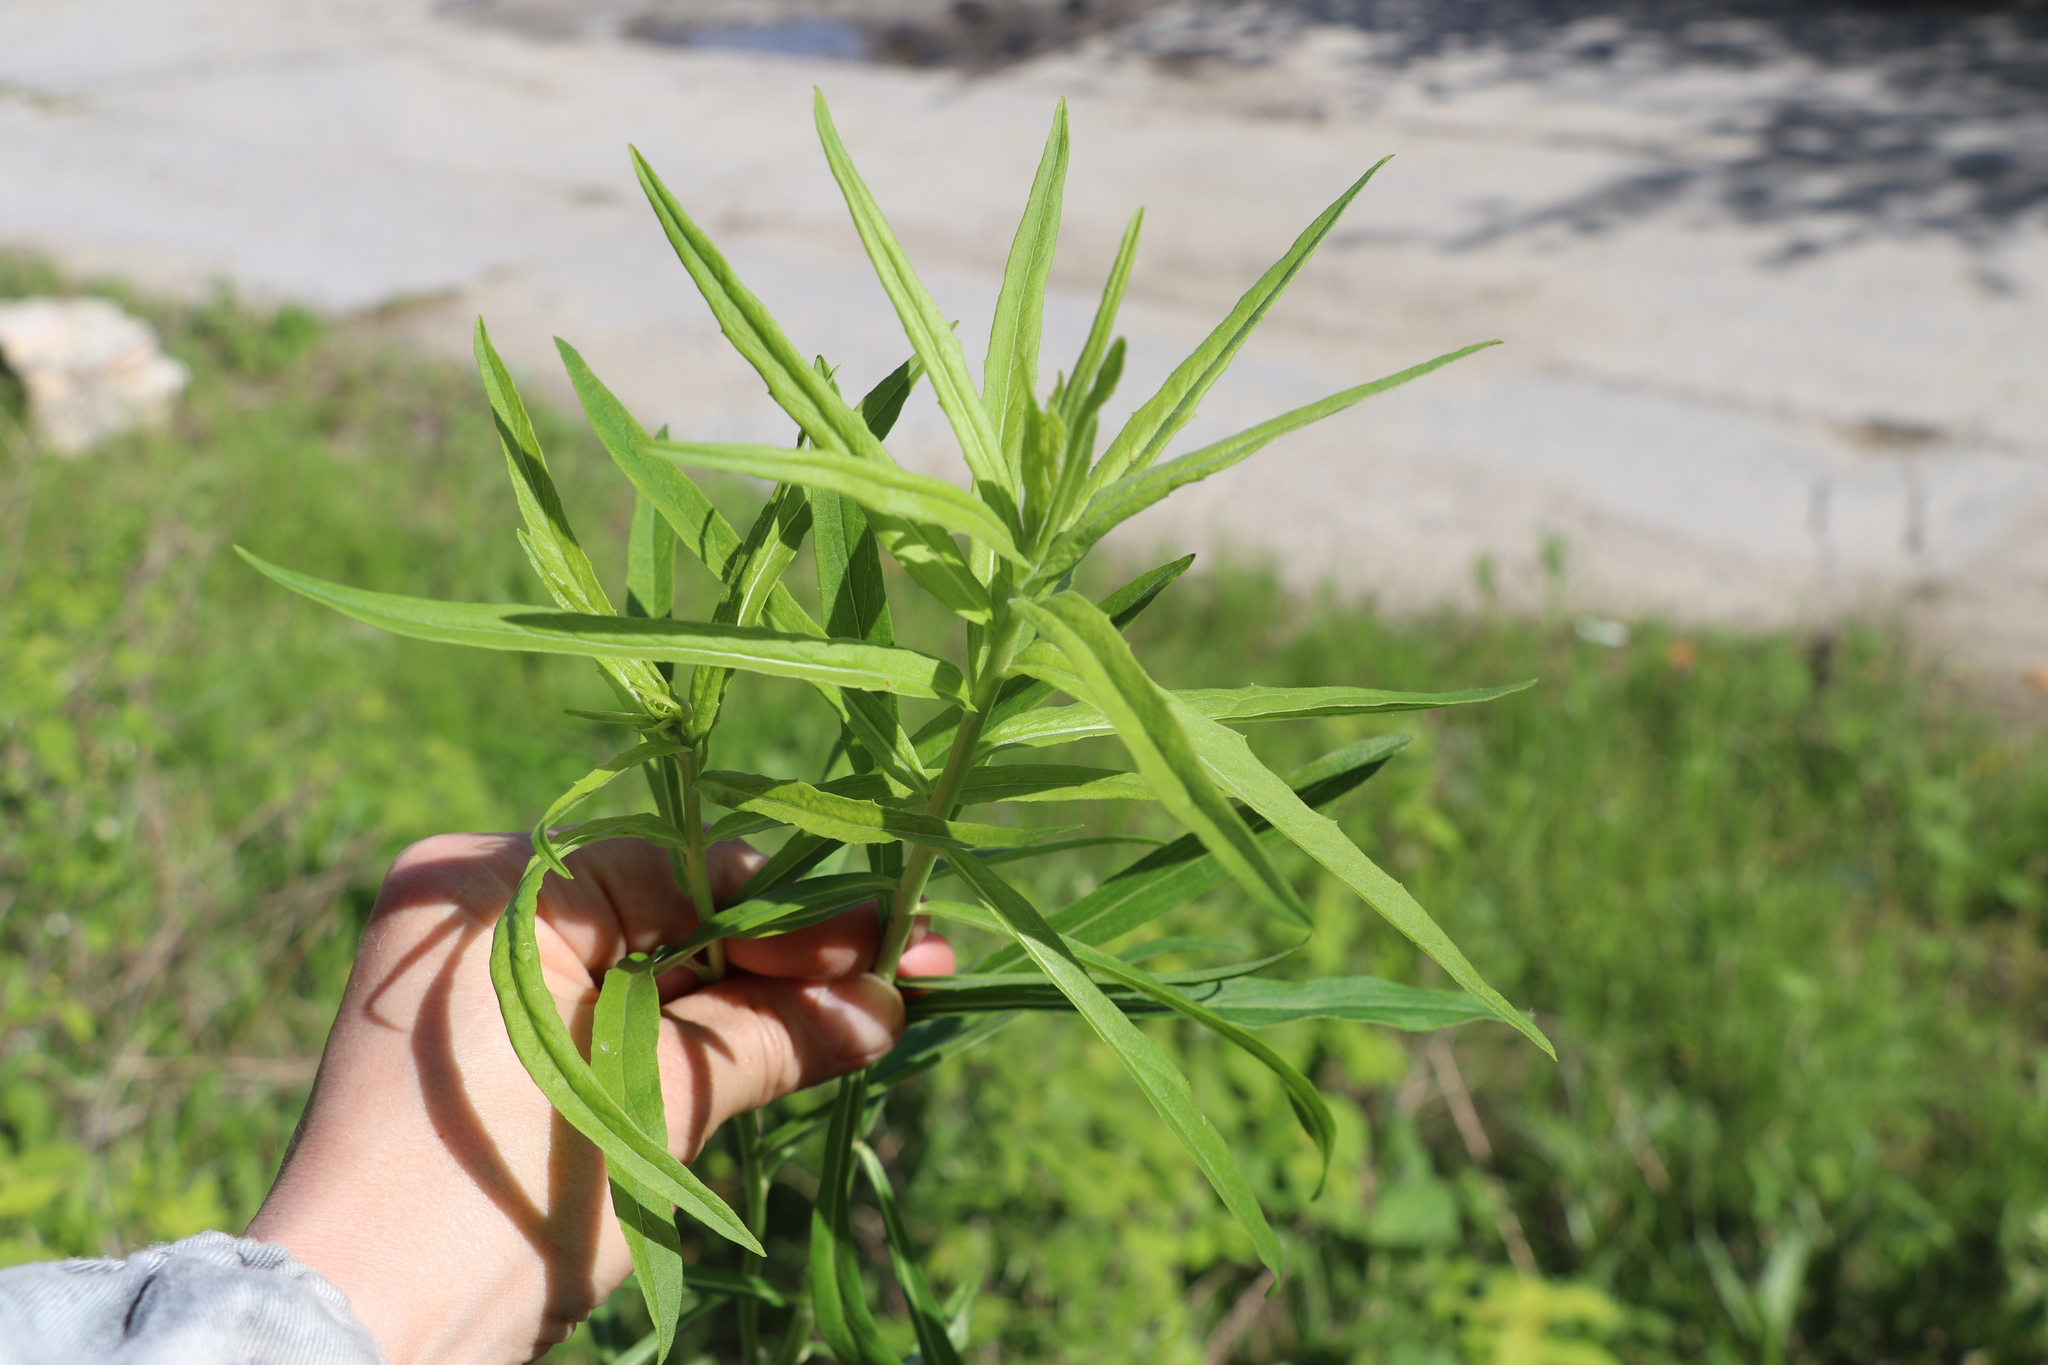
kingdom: Plantae
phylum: Tracheophyta
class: Magnoliopsida
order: Asterales
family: Asteraceae
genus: Hieracium
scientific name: Hieracium umbellatum
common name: Northern hawkweed
